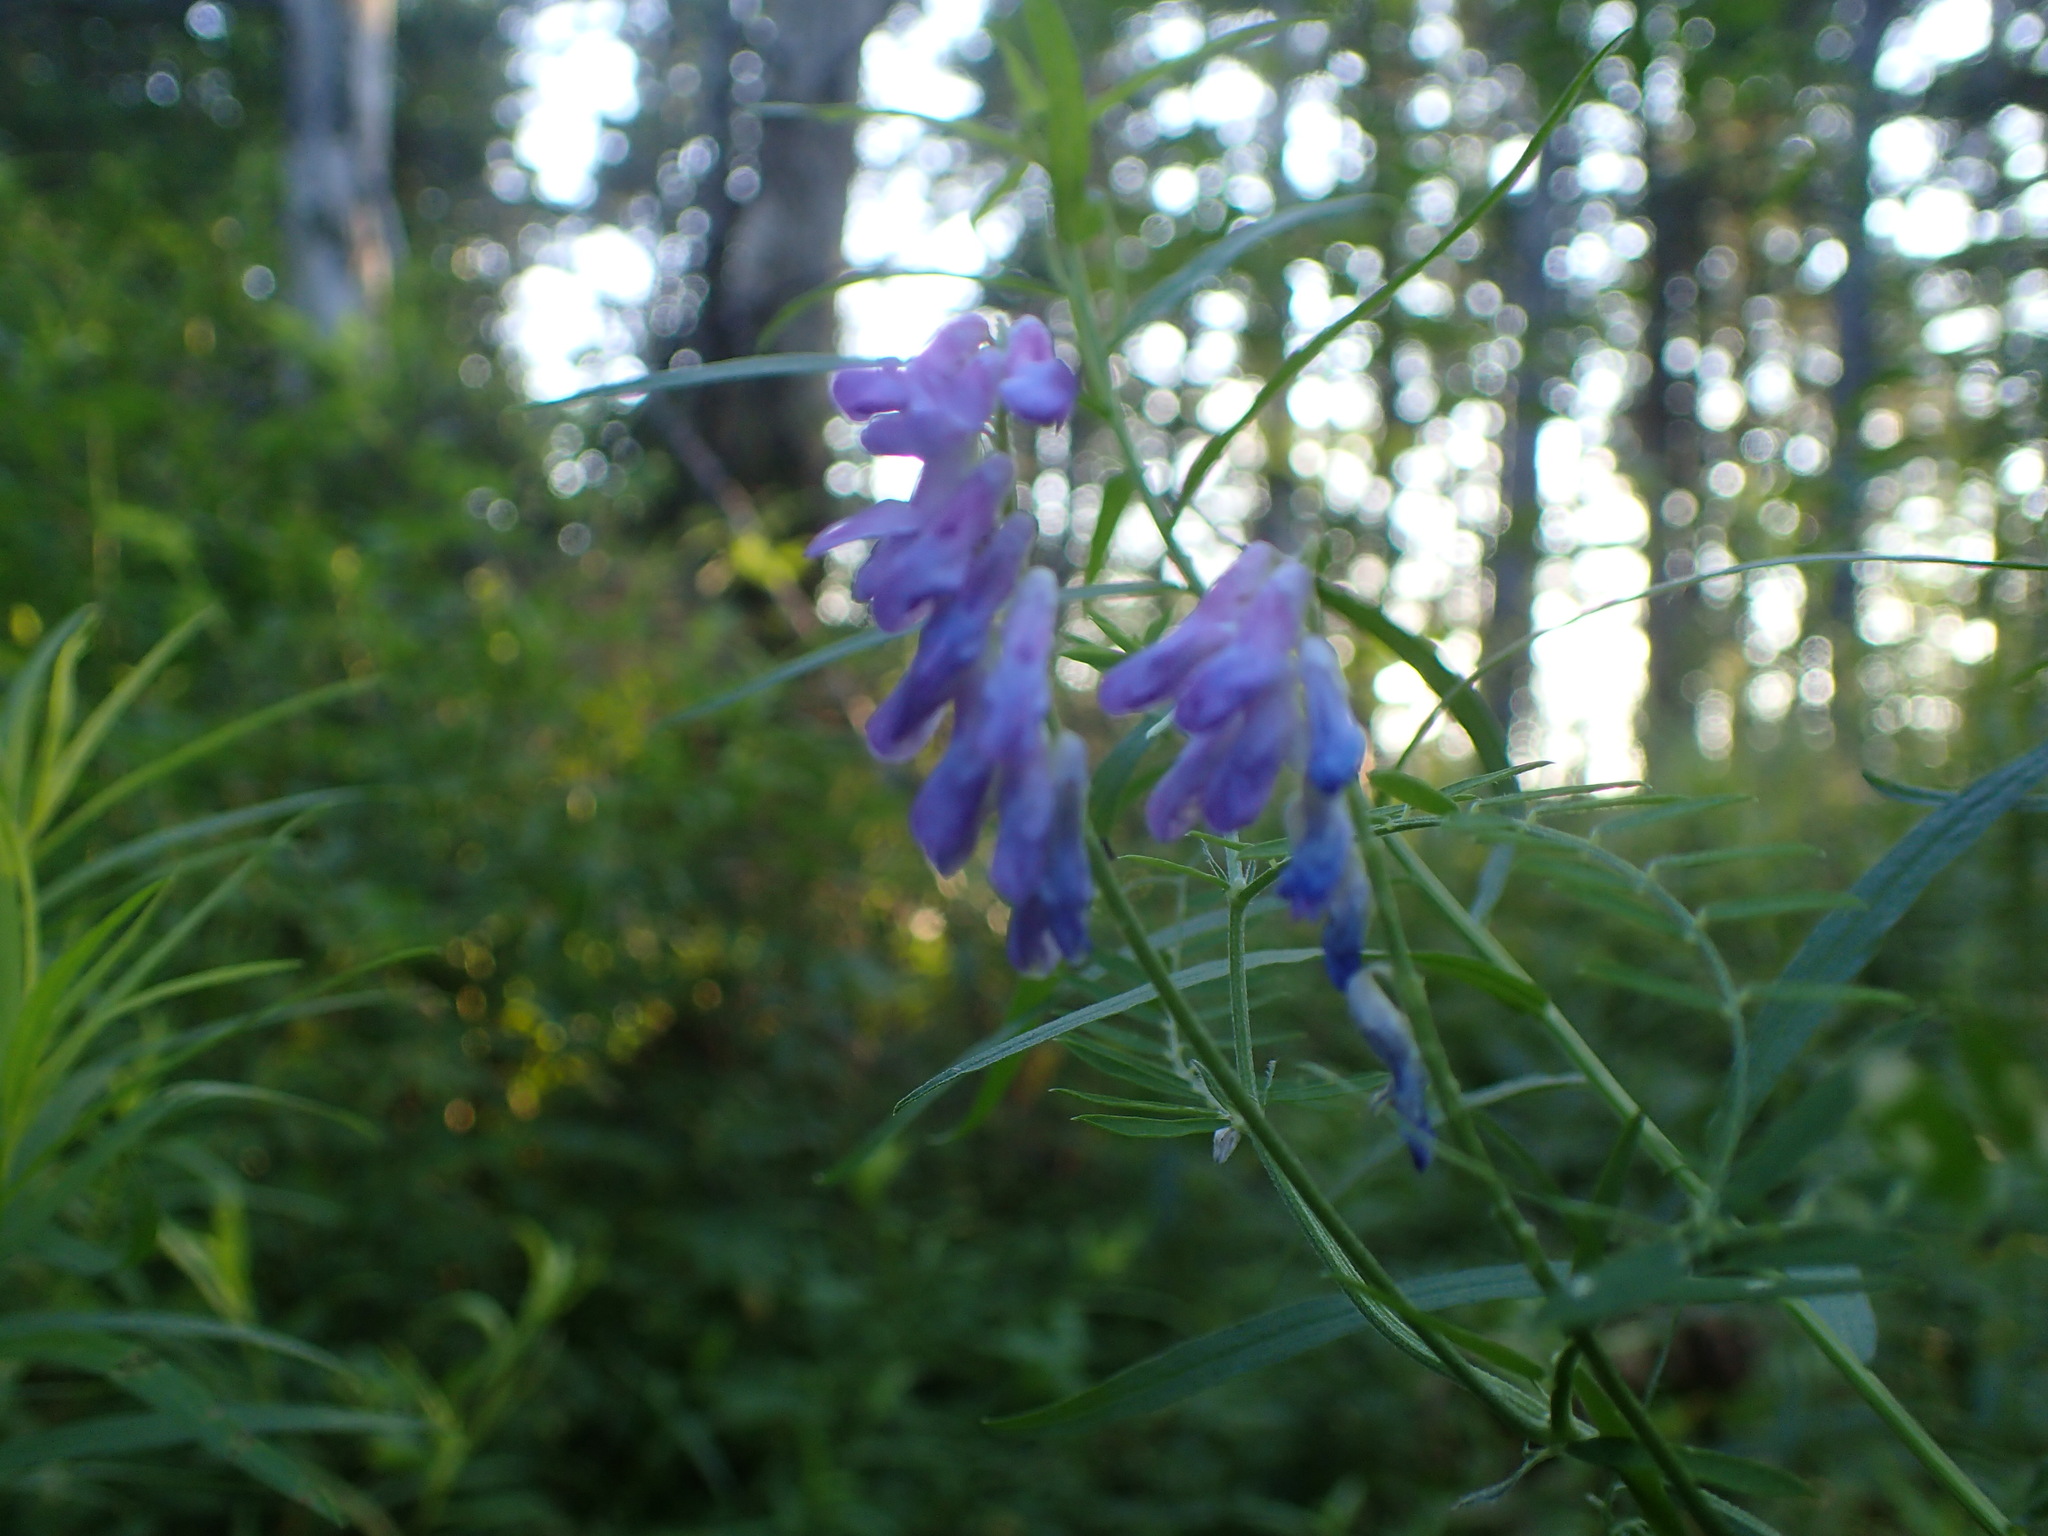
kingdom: Plantae
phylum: Tracheophyta
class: Magnoliopsida
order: Fabales
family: Fabaceae
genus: Vicia
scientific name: Vicia cracca
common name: Bird vetch
